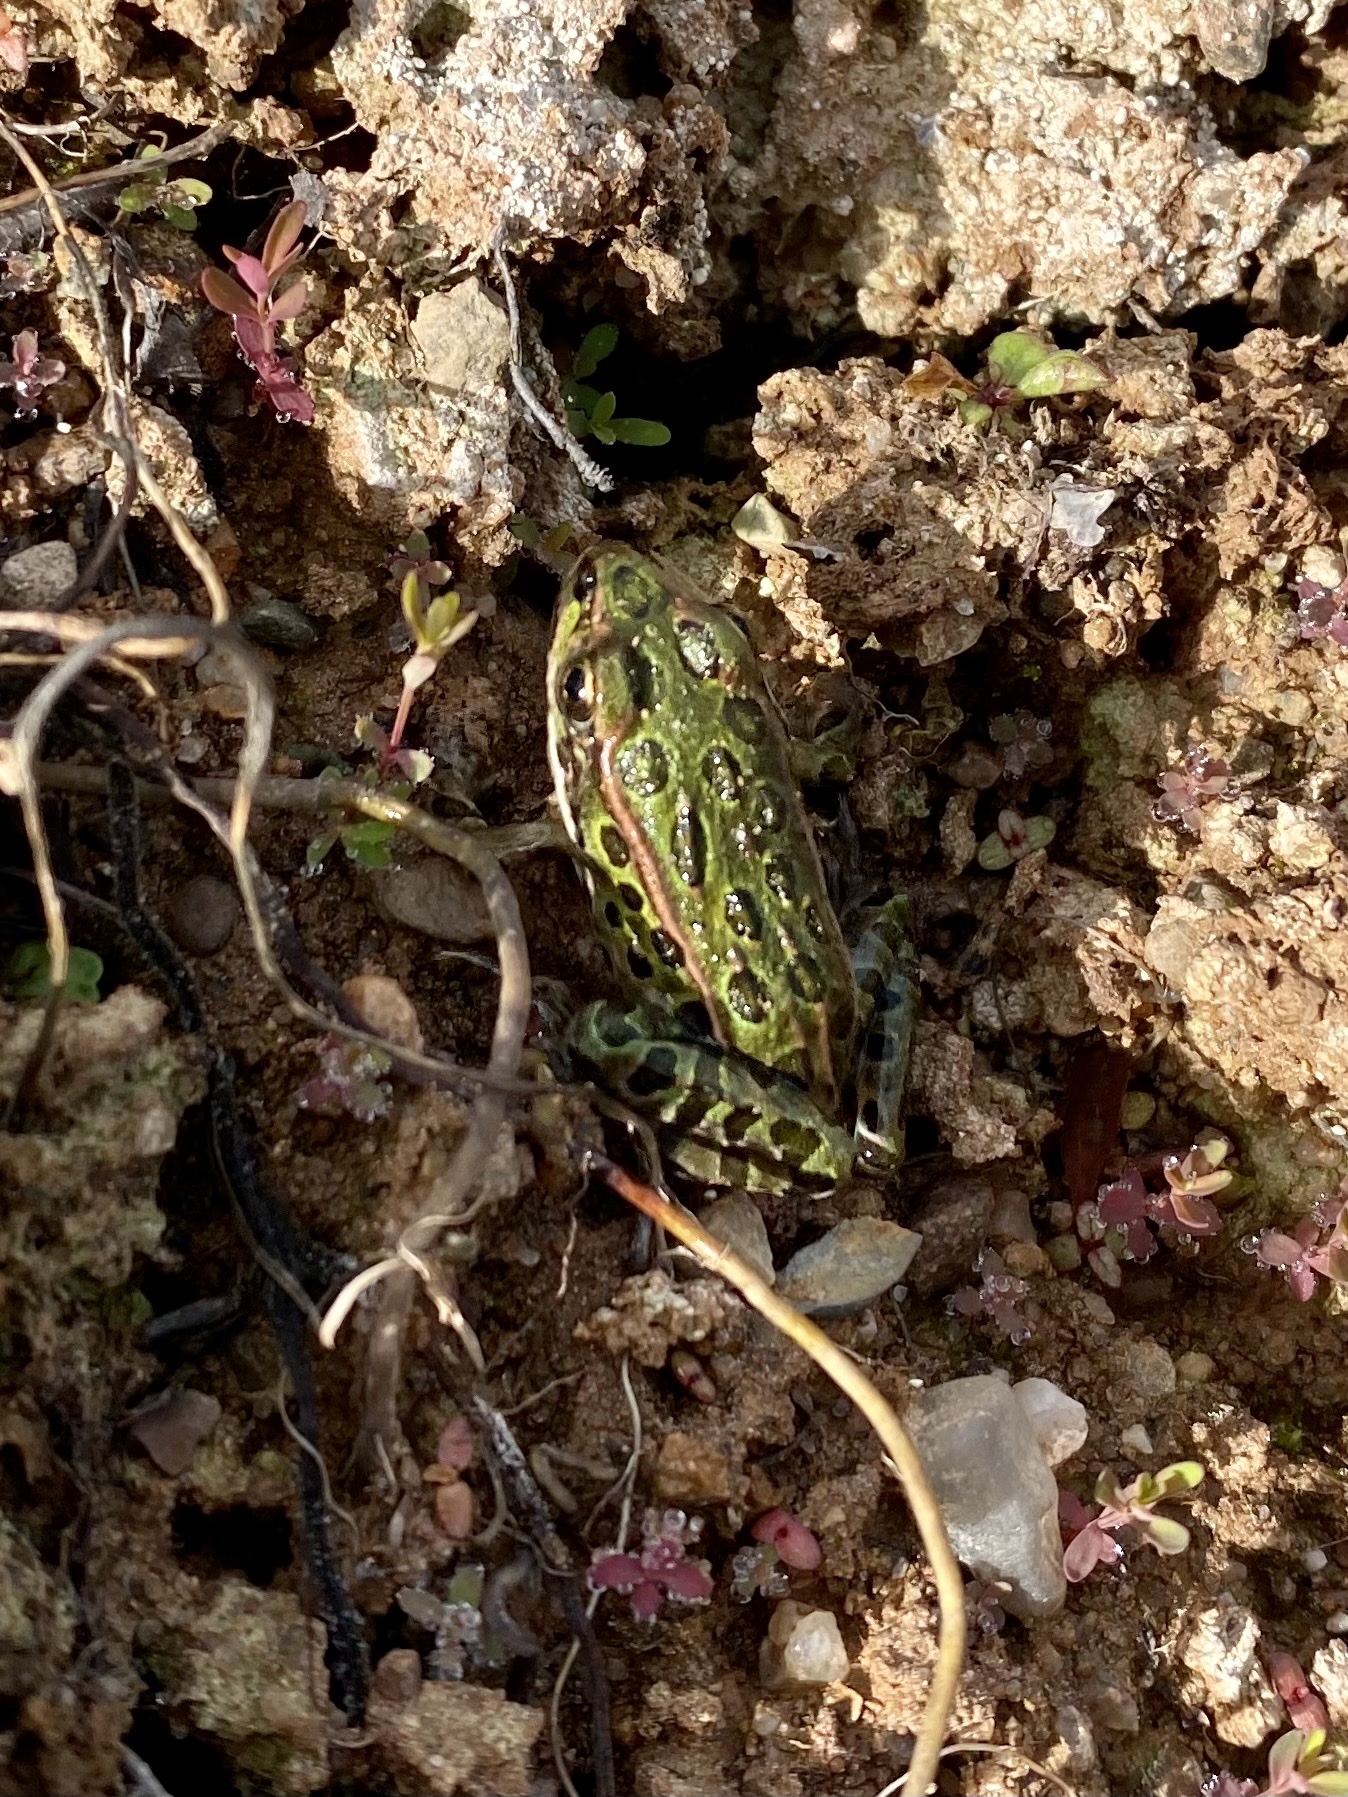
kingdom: Animalia
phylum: Chordata
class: Amphibia
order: Anura
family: Ranidae
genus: Lithobates
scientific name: Lithobates pipiens
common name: Northern leopard frog
